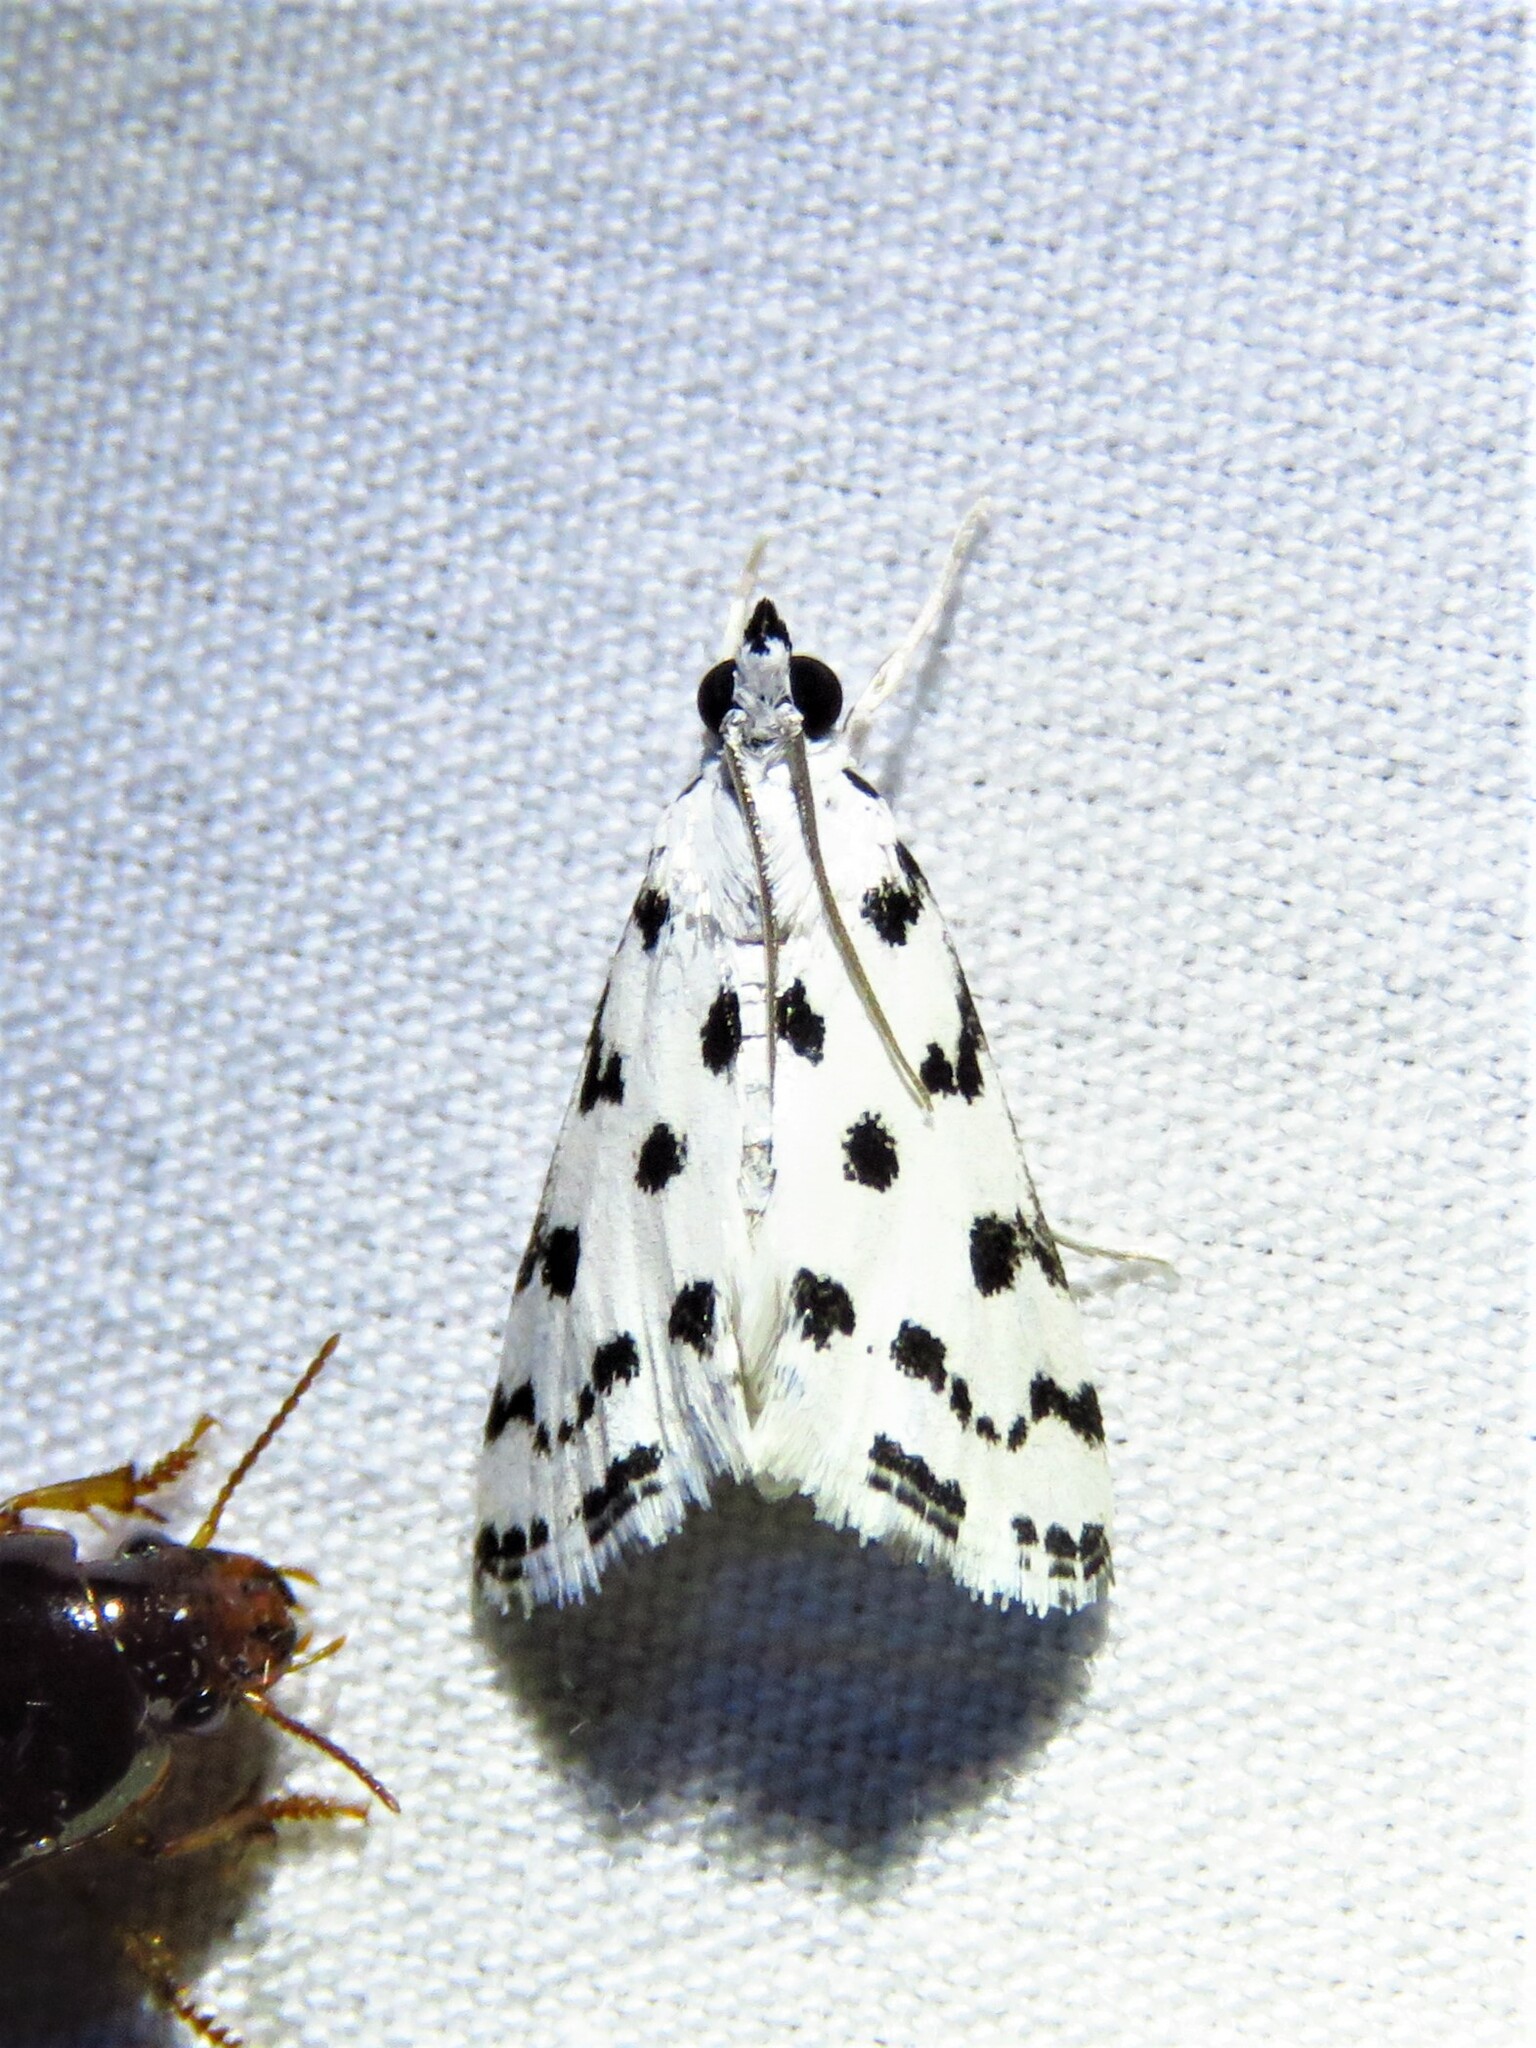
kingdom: Animalia
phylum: Arthropoda
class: Insecta
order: Lepidoptera
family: Crambidae
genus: Eustixia
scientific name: Eustixia pupula
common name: American cabbage pearl
